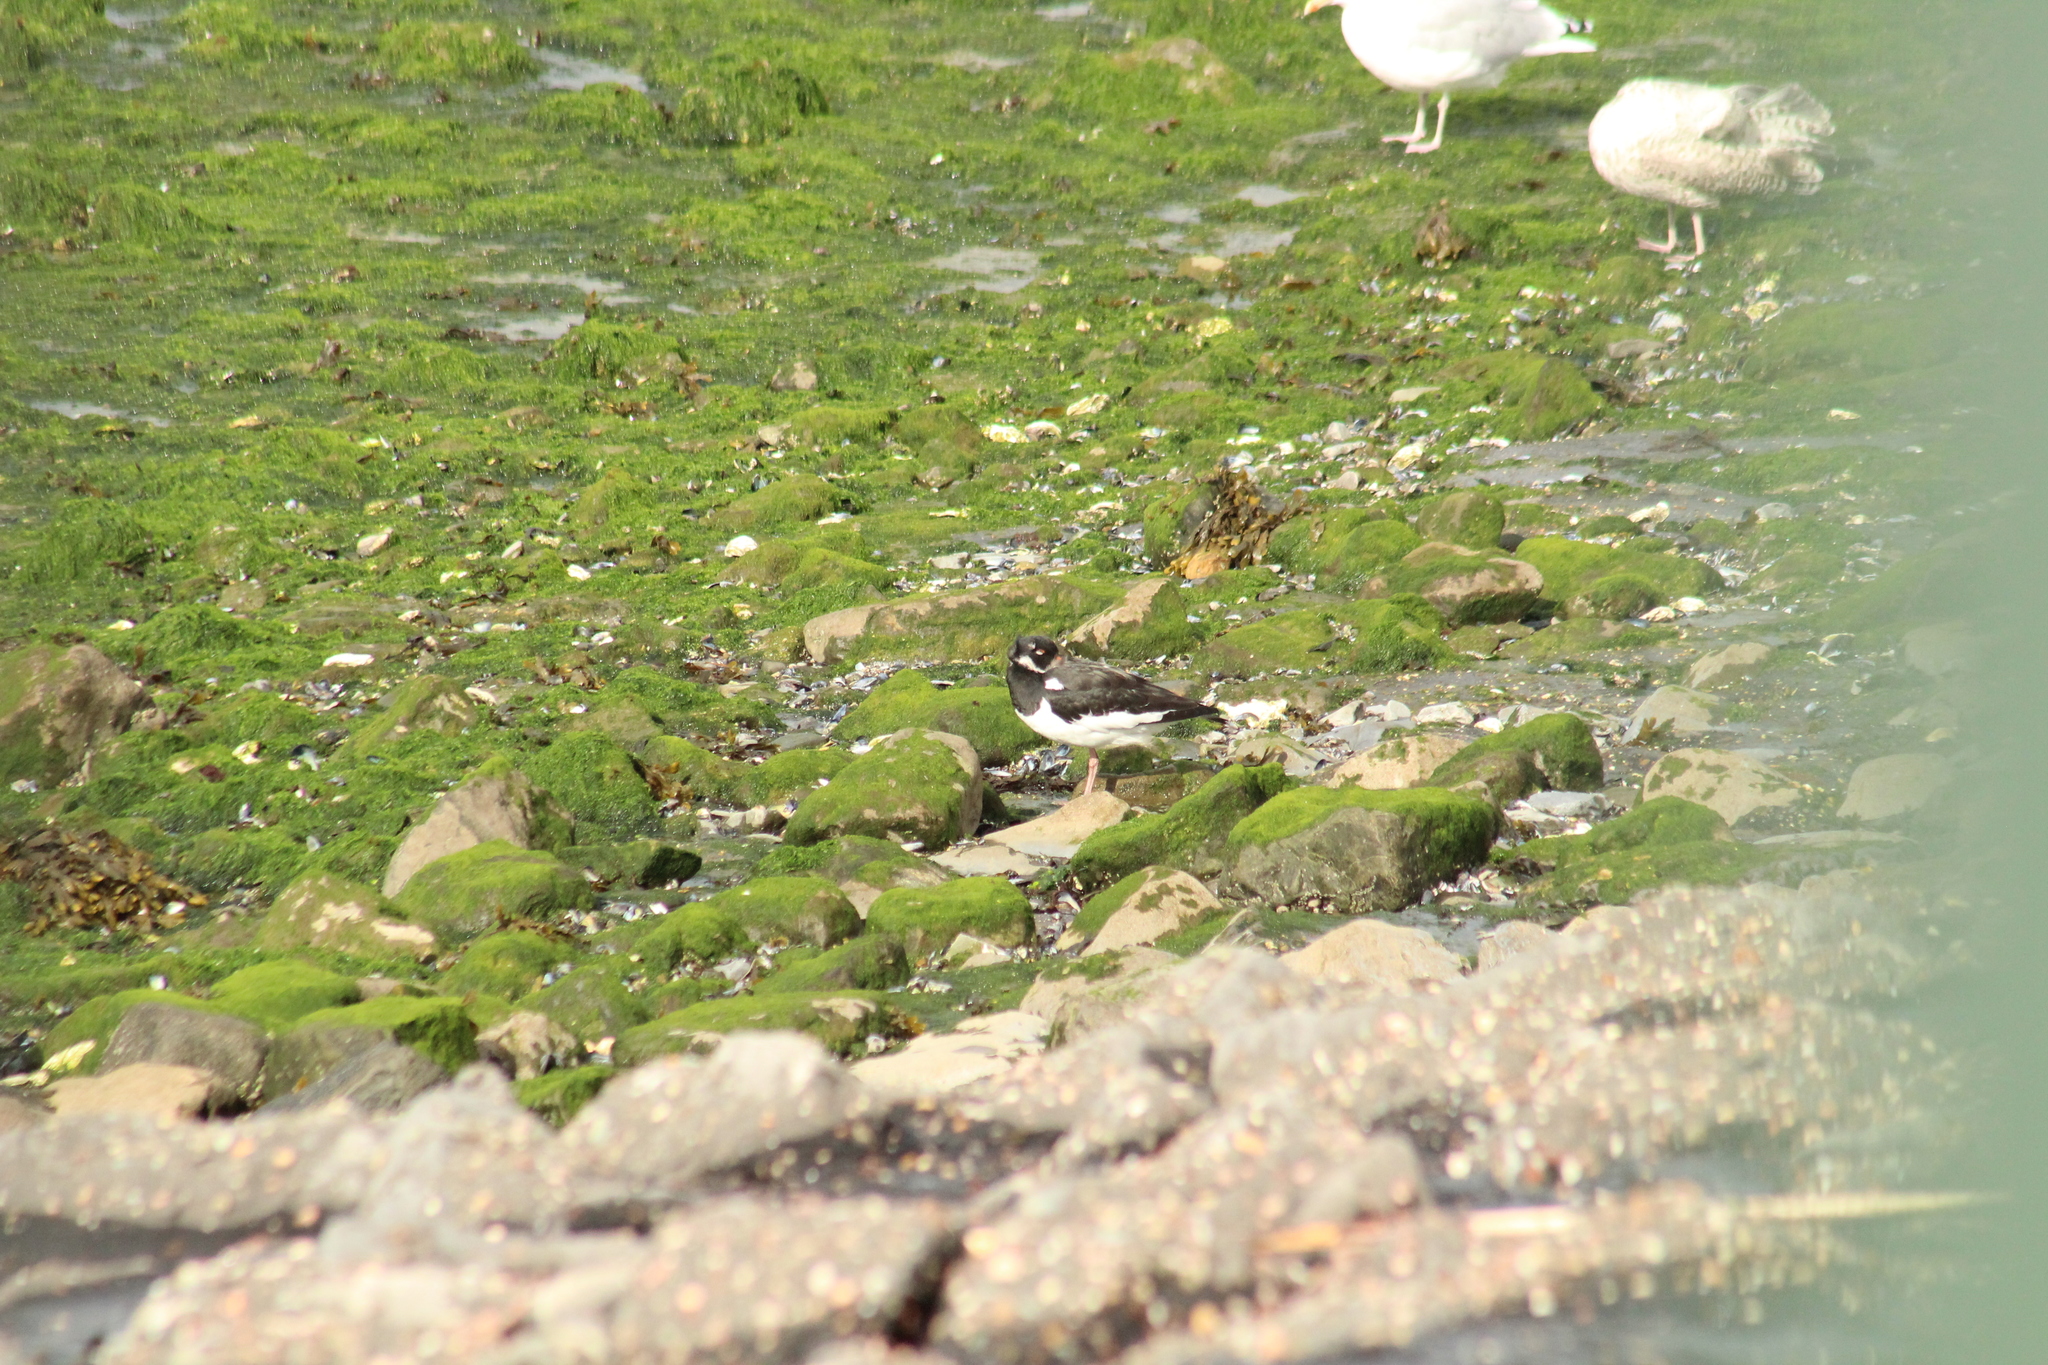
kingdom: Animalia
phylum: Chordata
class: Aves
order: Charadriiformes
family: Haematopodidae
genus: Haematopus
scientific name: Haematopus ostralegus
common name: Eurasian oystercatcher
